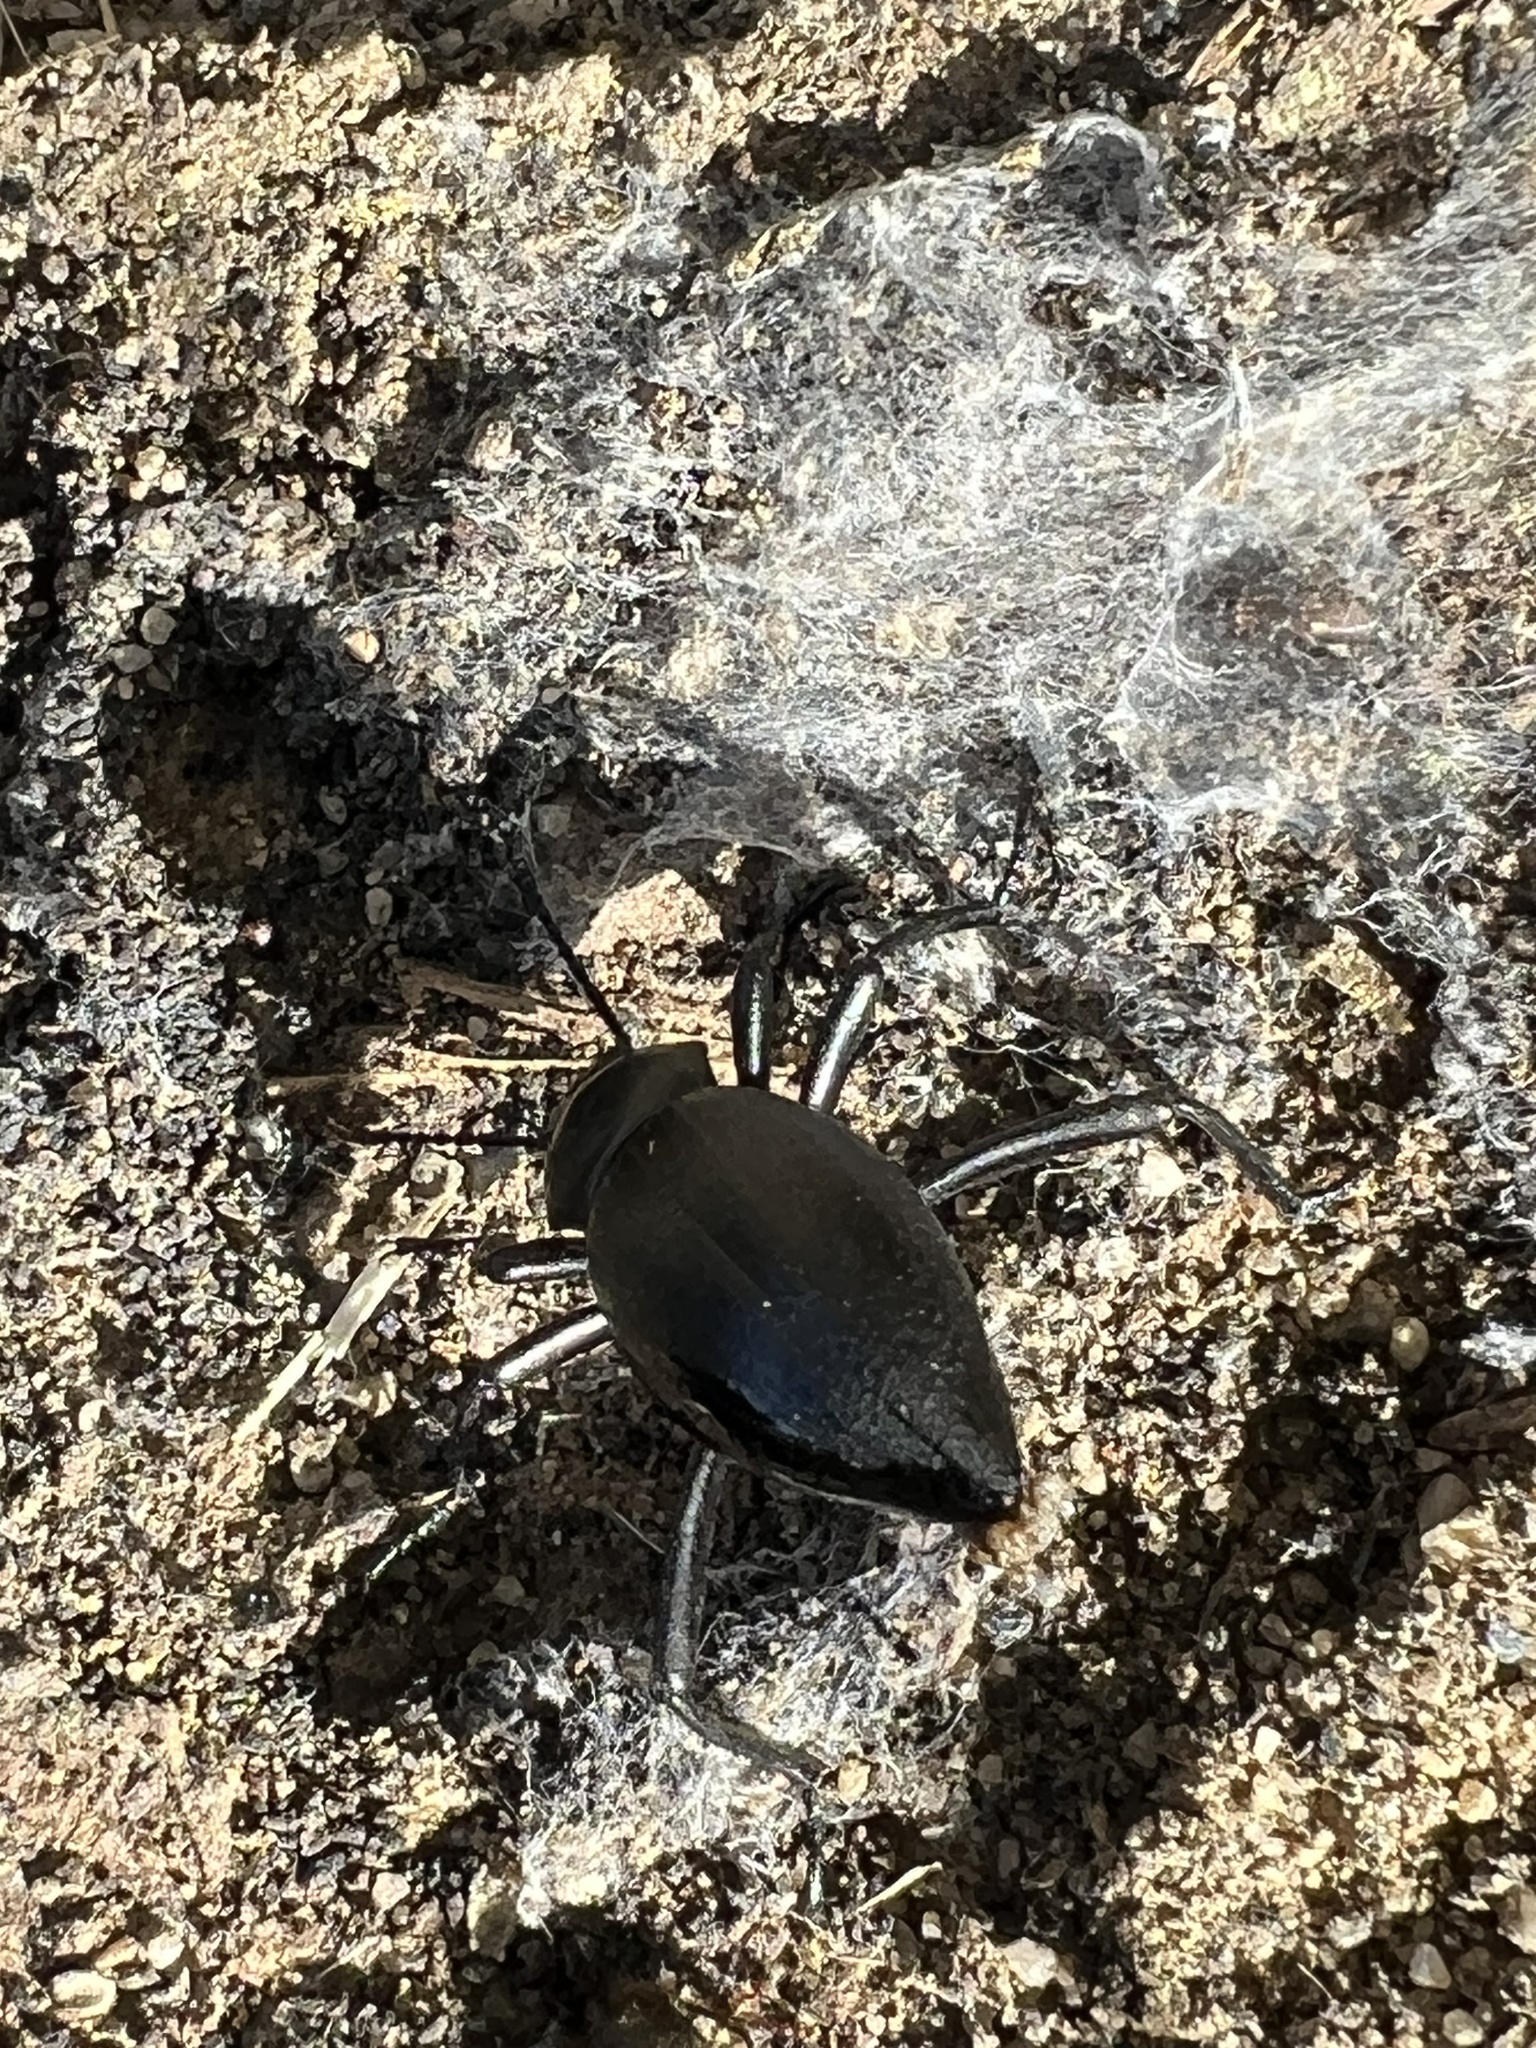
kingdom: Animalia
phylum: Arthropoda
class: Insecta
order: Coleoptera
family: Tenebrionidae
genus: Eleodes
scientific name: Eleodes dentipes
